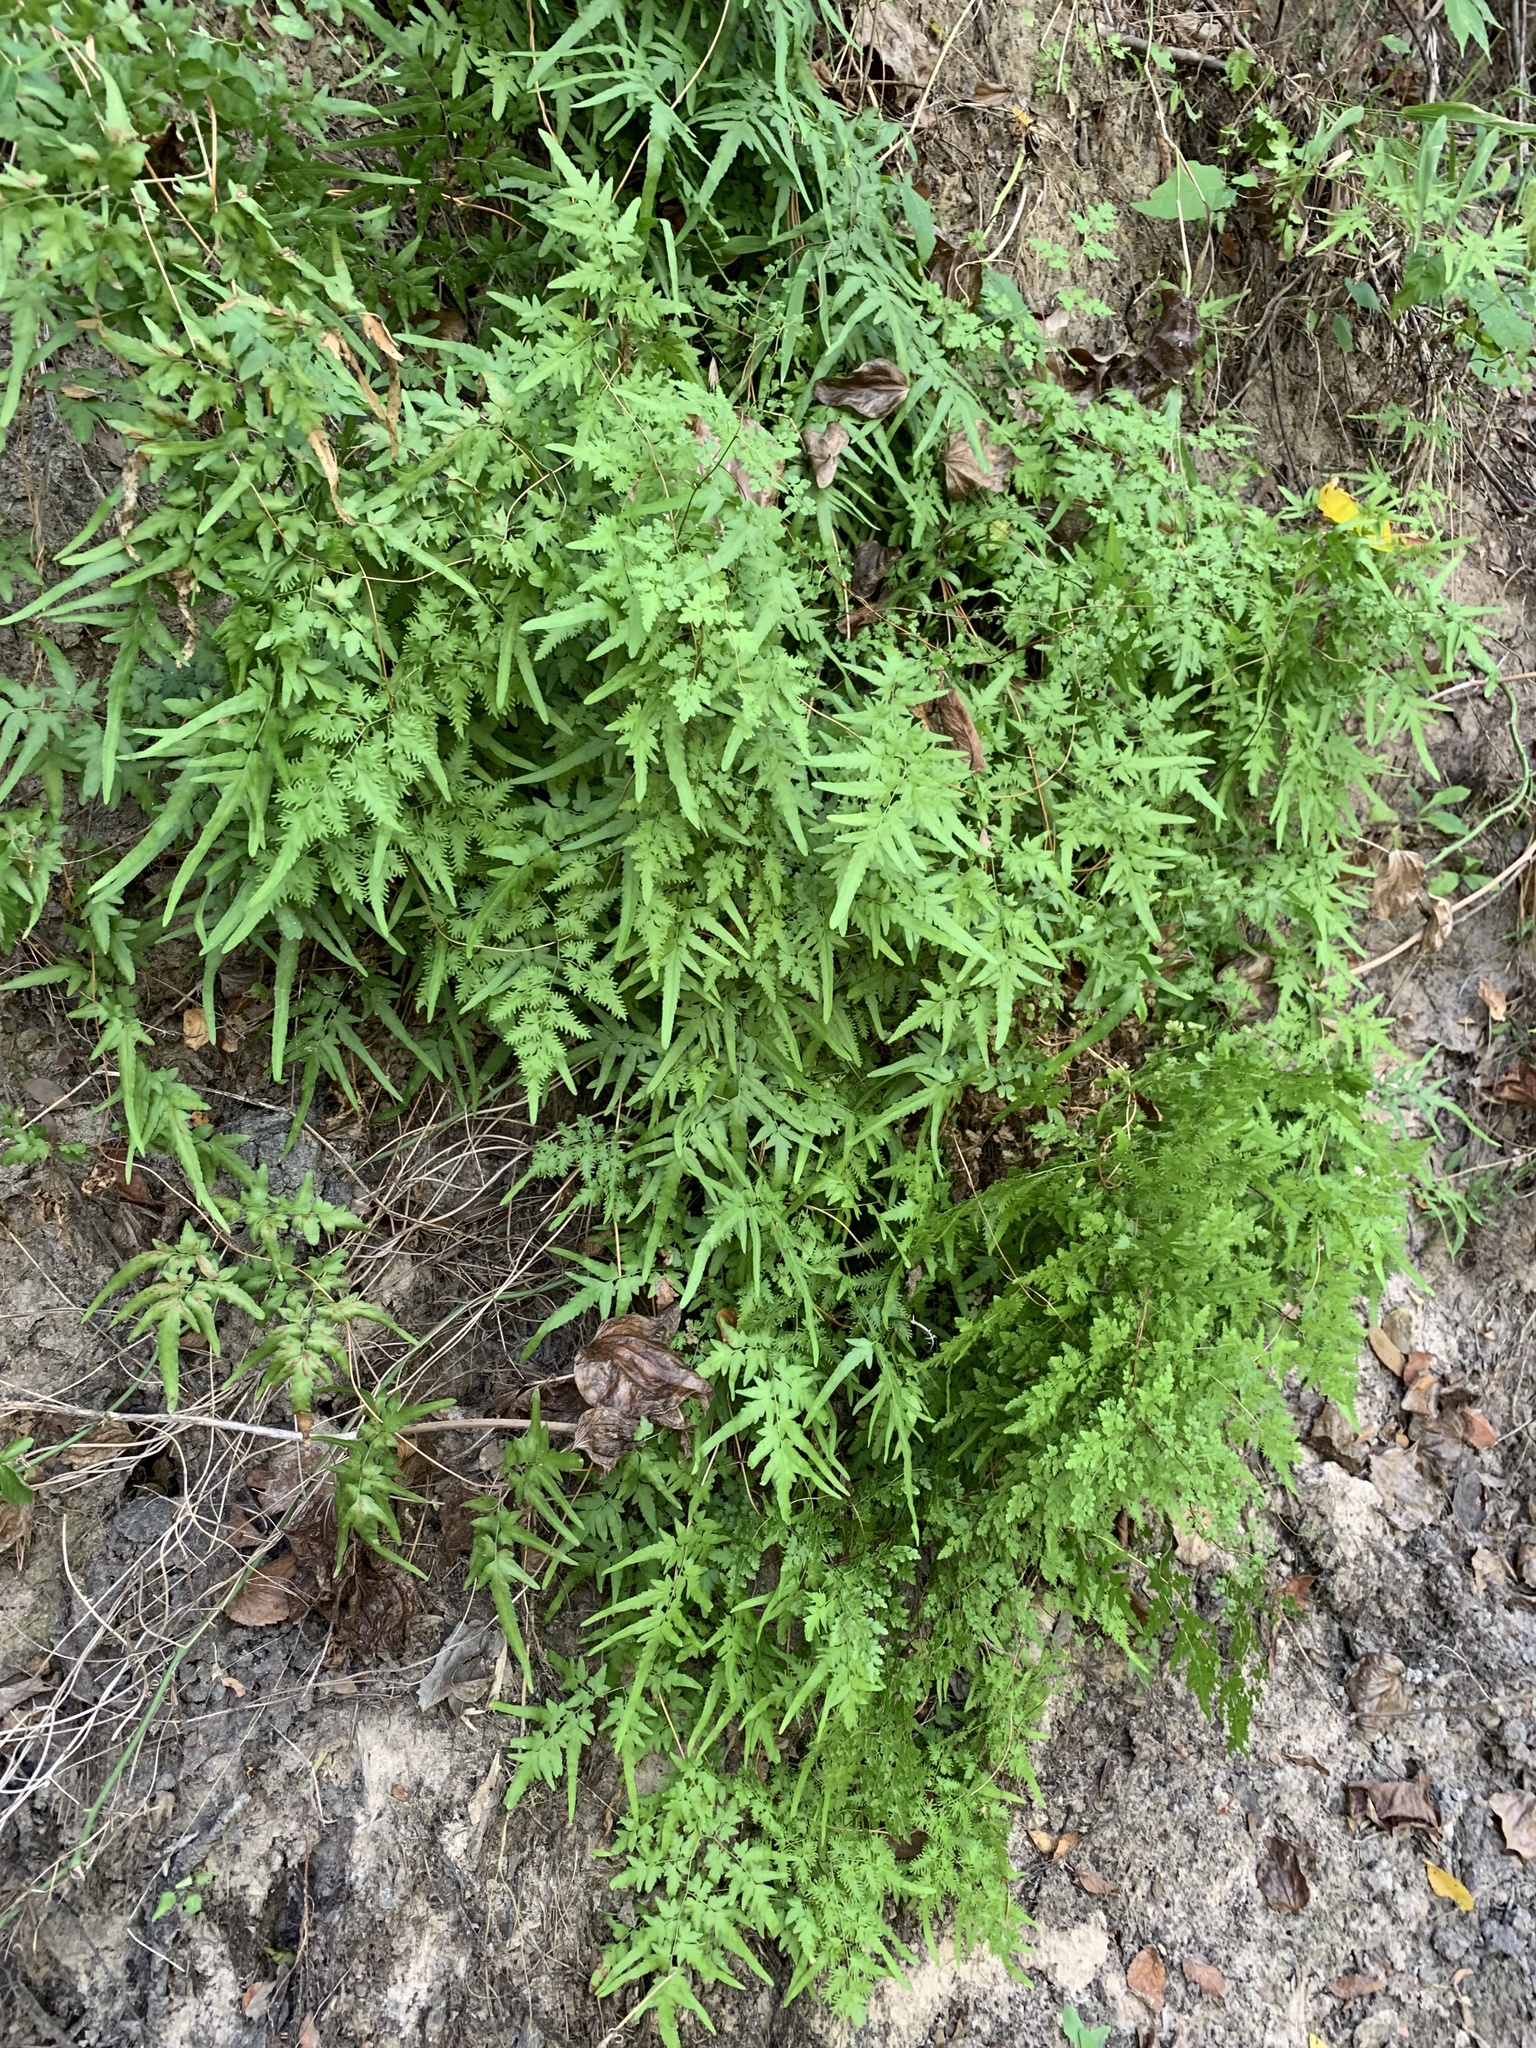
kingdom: Plantae
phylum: Tracheophyta
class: Polypodiopsida
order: Schizaeales
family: Lygodiaceae
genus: Lygodium
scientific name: Lygodium japonicum
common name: Japanese climbing fern
